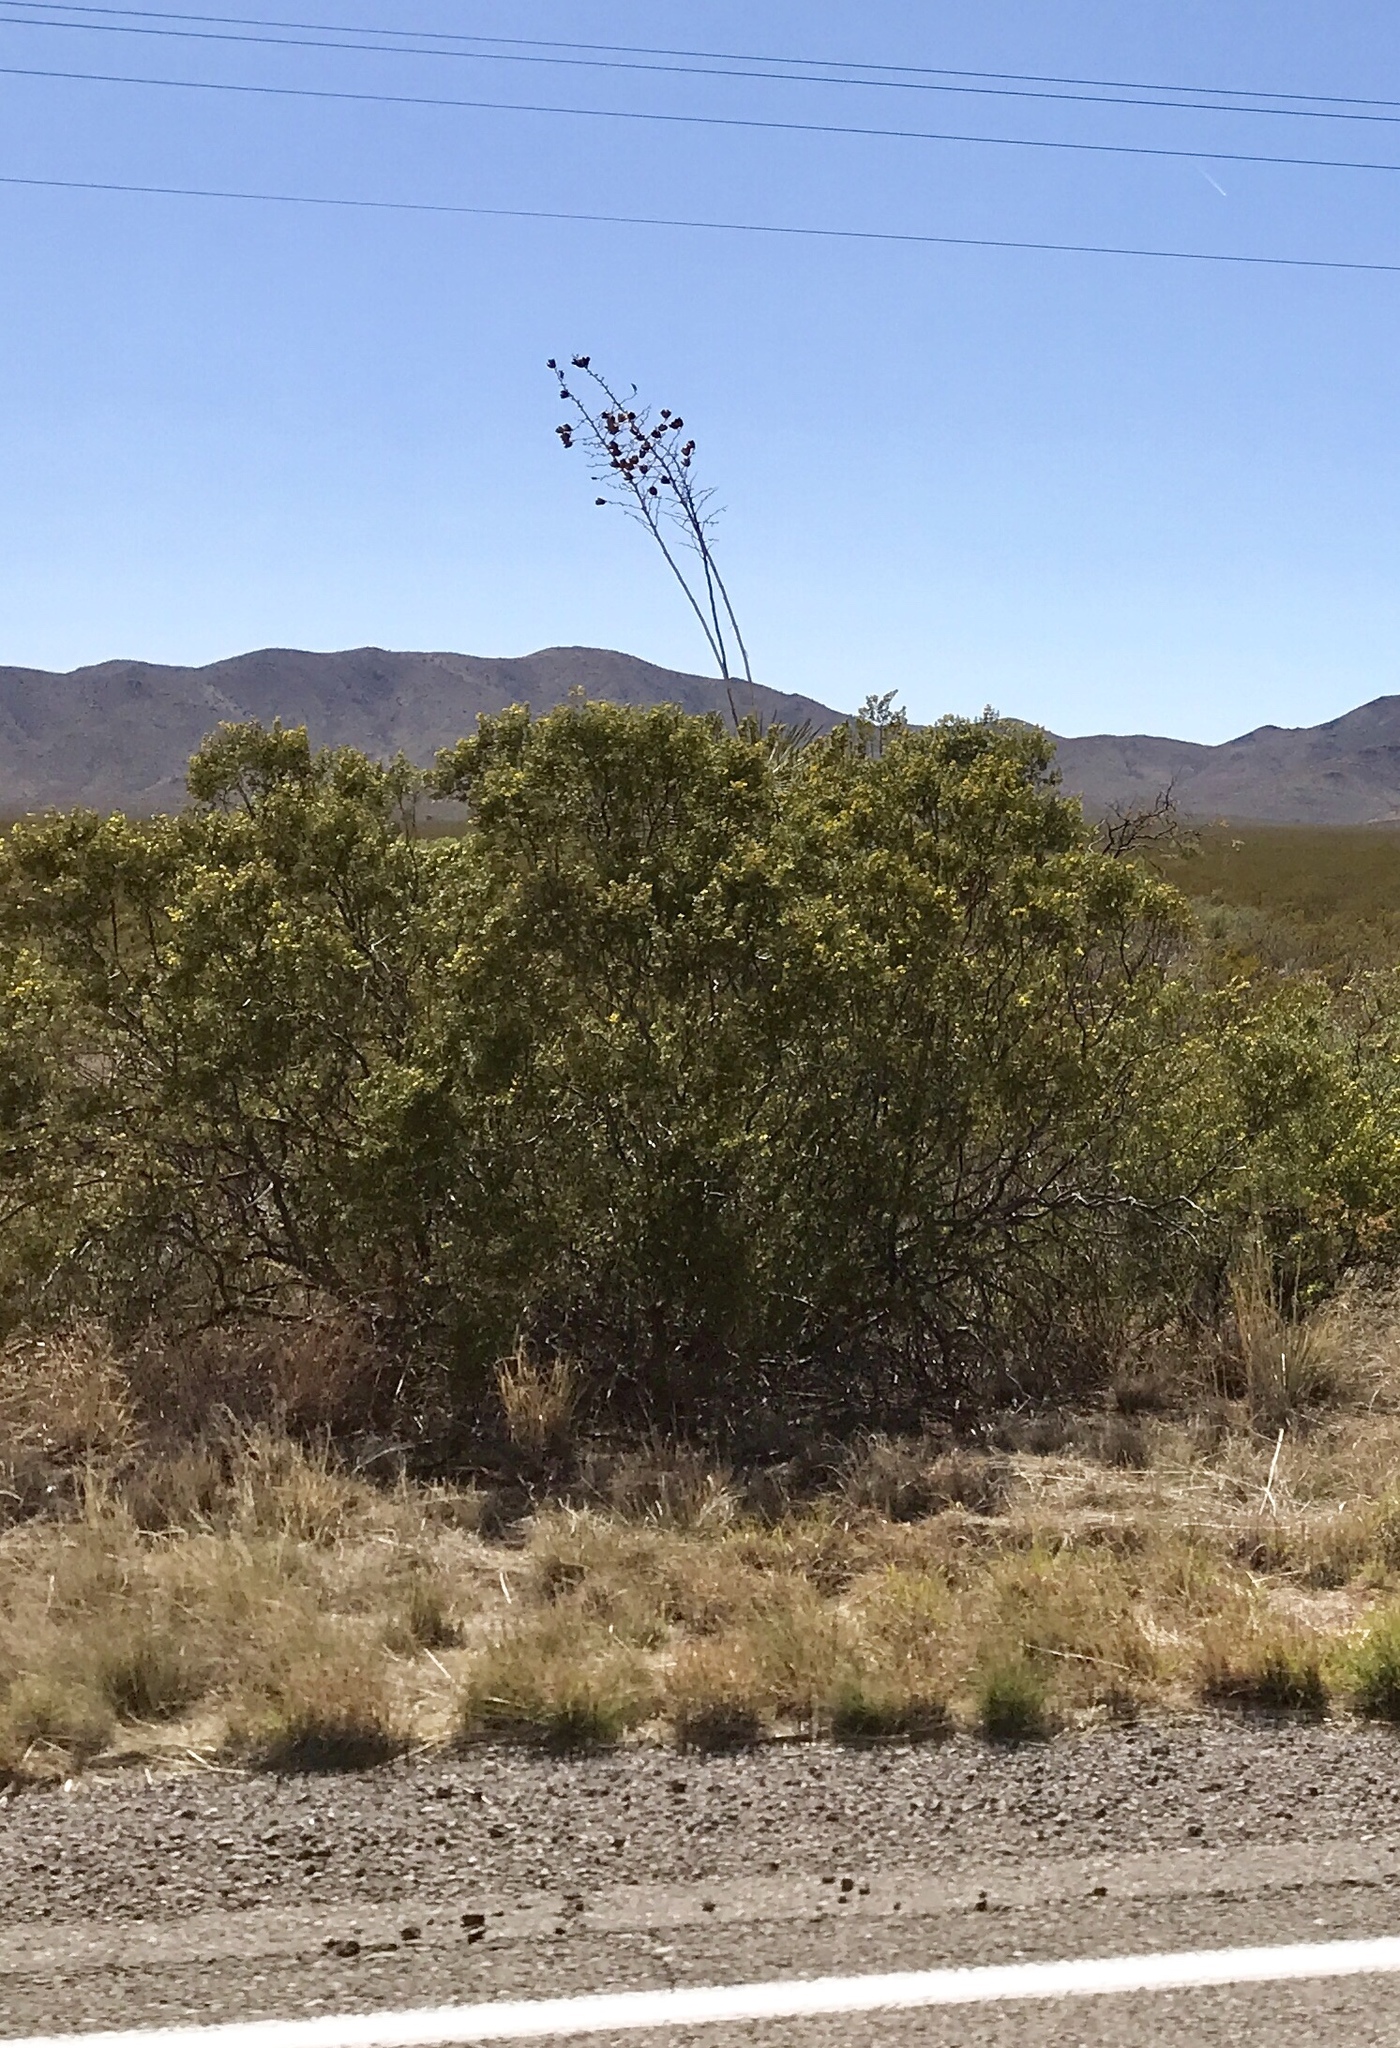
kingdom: Plantae
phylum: Tracheophyta
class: Magnoliopsida
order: Zygophyllales
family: Zygophyllaceae
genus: Larrea
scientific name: Larrea tridentata
